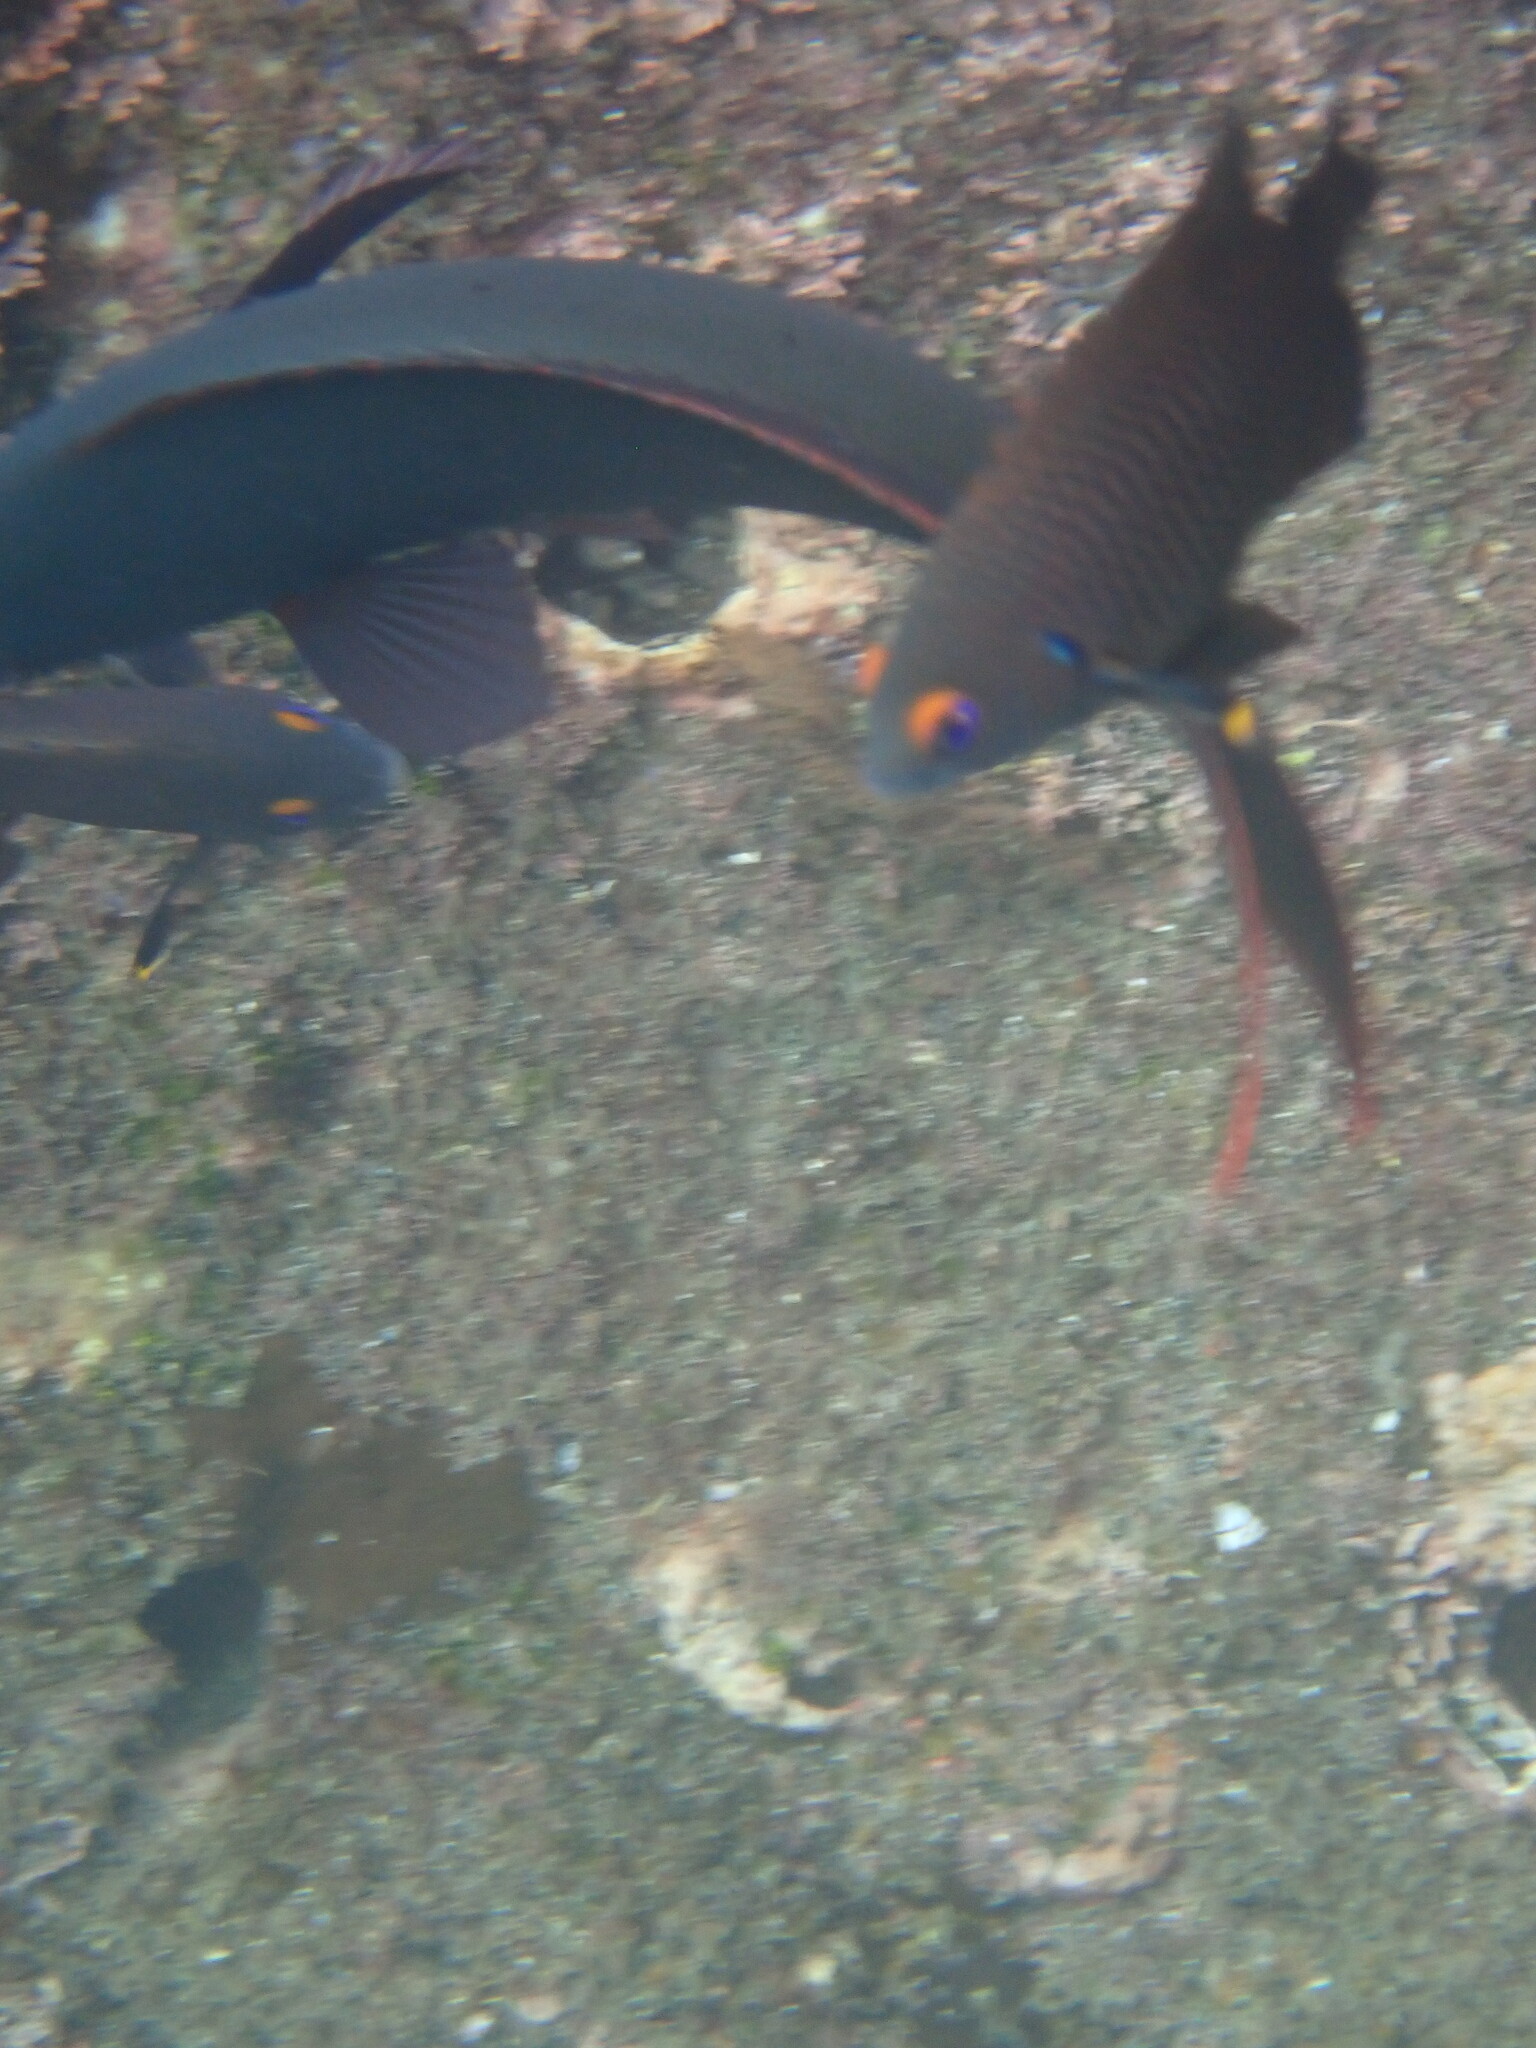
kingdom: Animalia
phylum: Chordata
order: Perciformes
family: Serranidae
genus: Paranthias
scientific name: Paranthias colonus
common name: Pacific creole-fish
